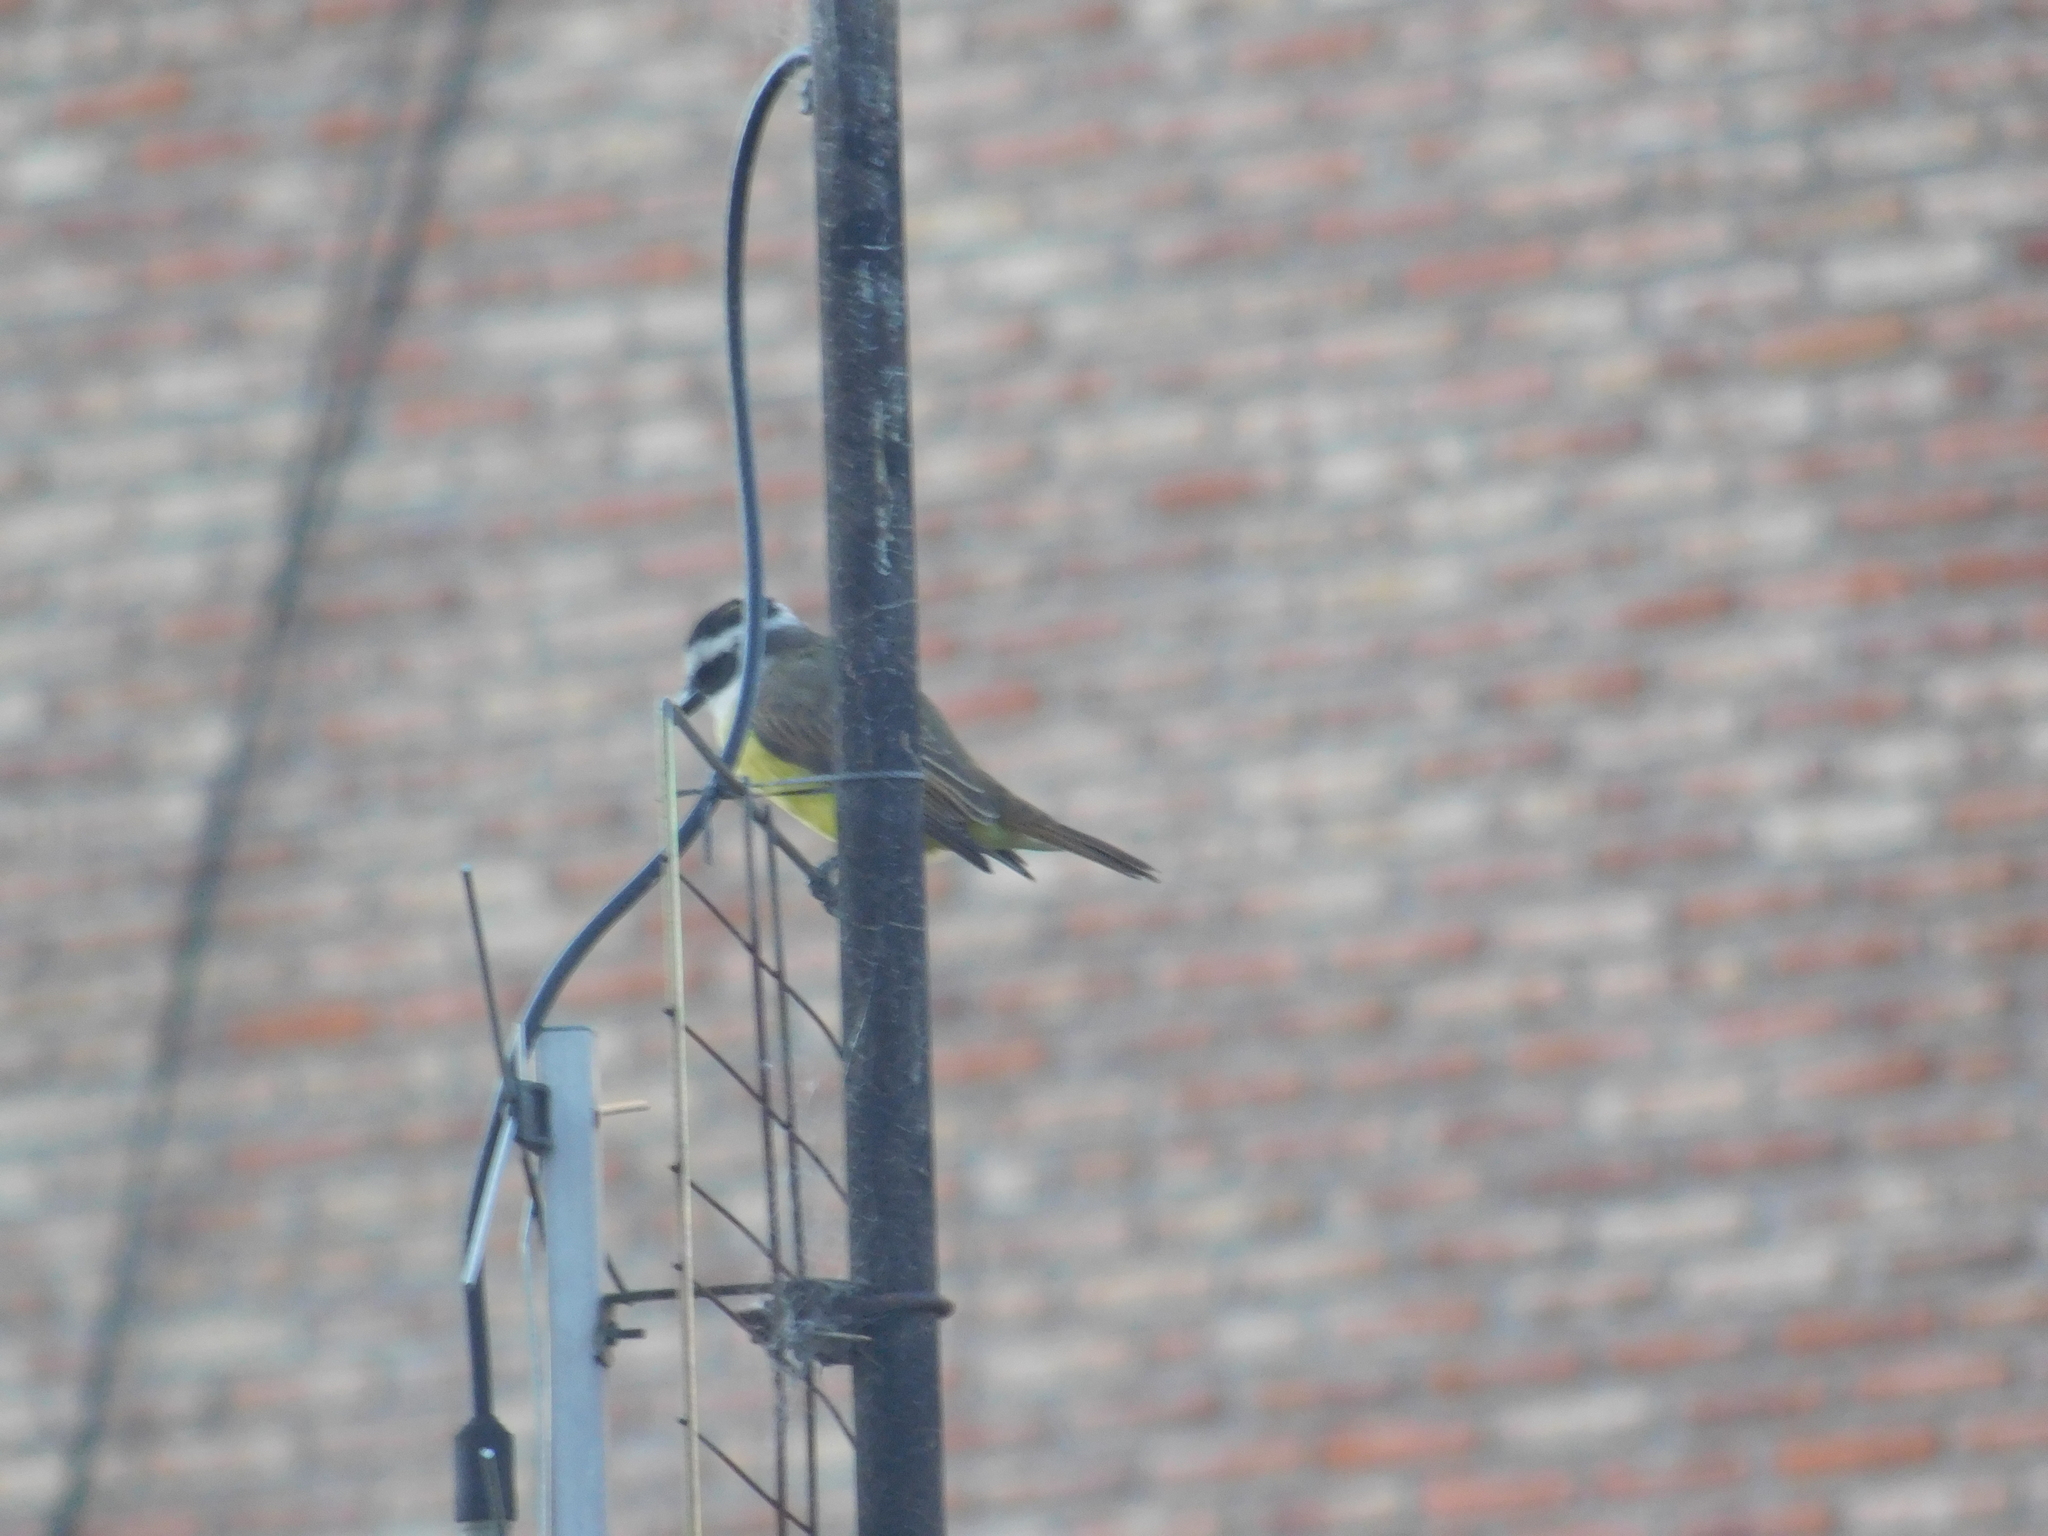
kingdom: Animalia
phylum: Chordata
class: Aves
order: Passeriformes
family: Tyrannidae
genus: Pitangus
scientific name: Pitangus sulphuratus
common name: Great kiskadee
